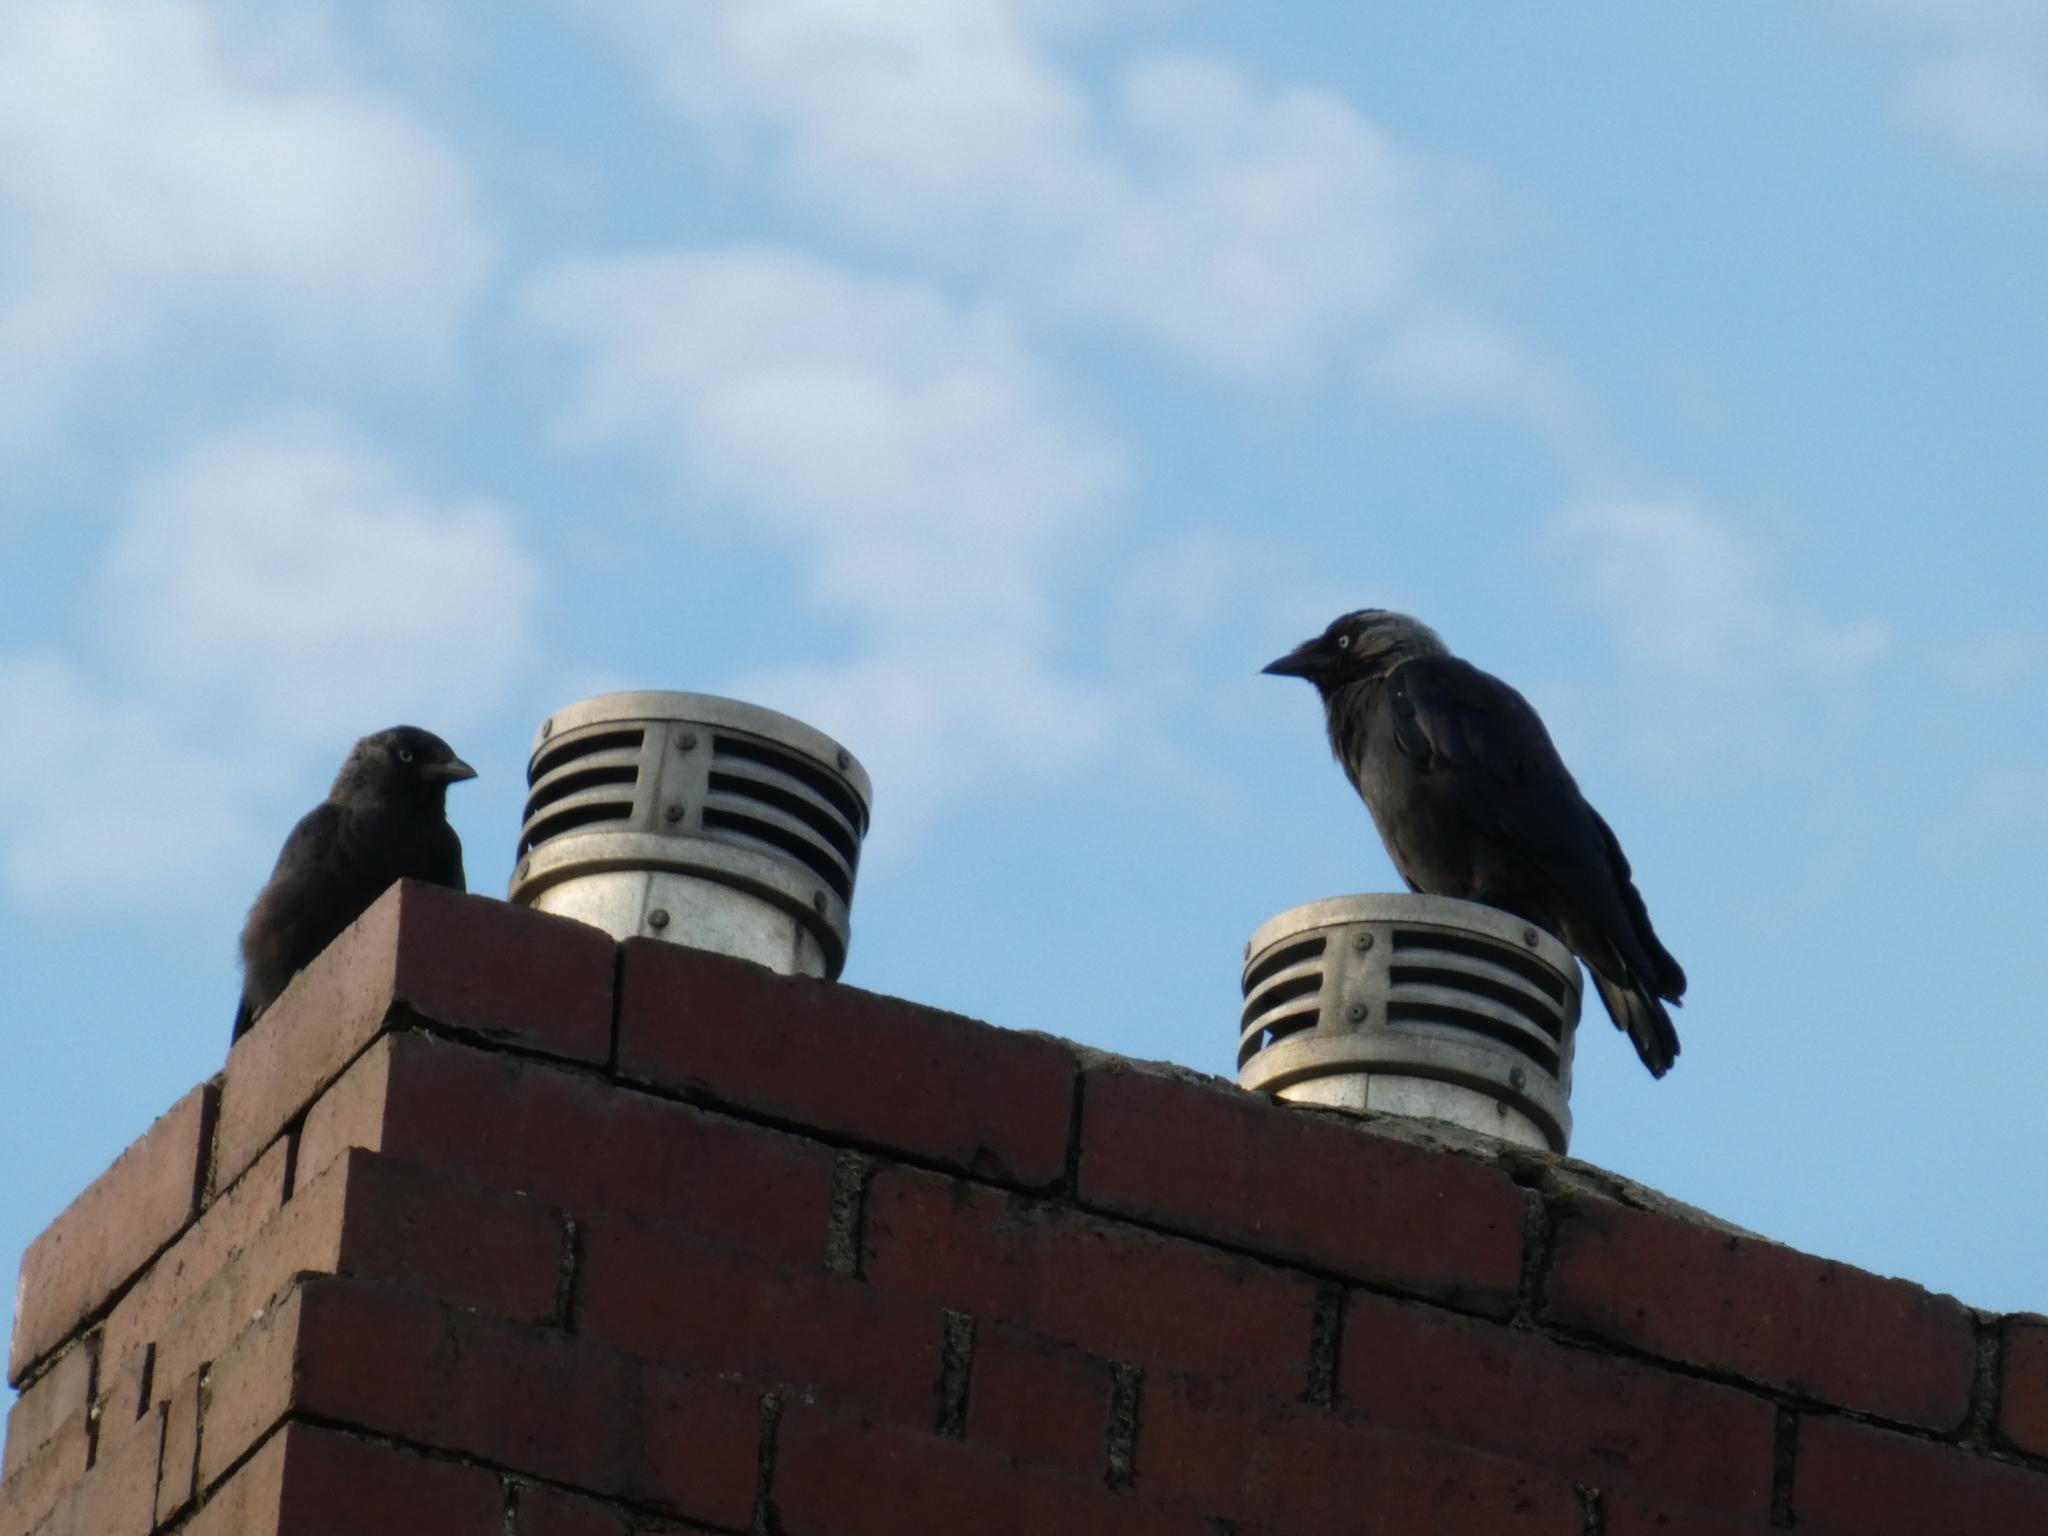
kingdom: Animalia
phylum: Chordata
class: Aves
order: Passeriformes
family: Corvidae
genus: Coloeus
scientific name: Coloeus monedula
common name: Western jackdaw
